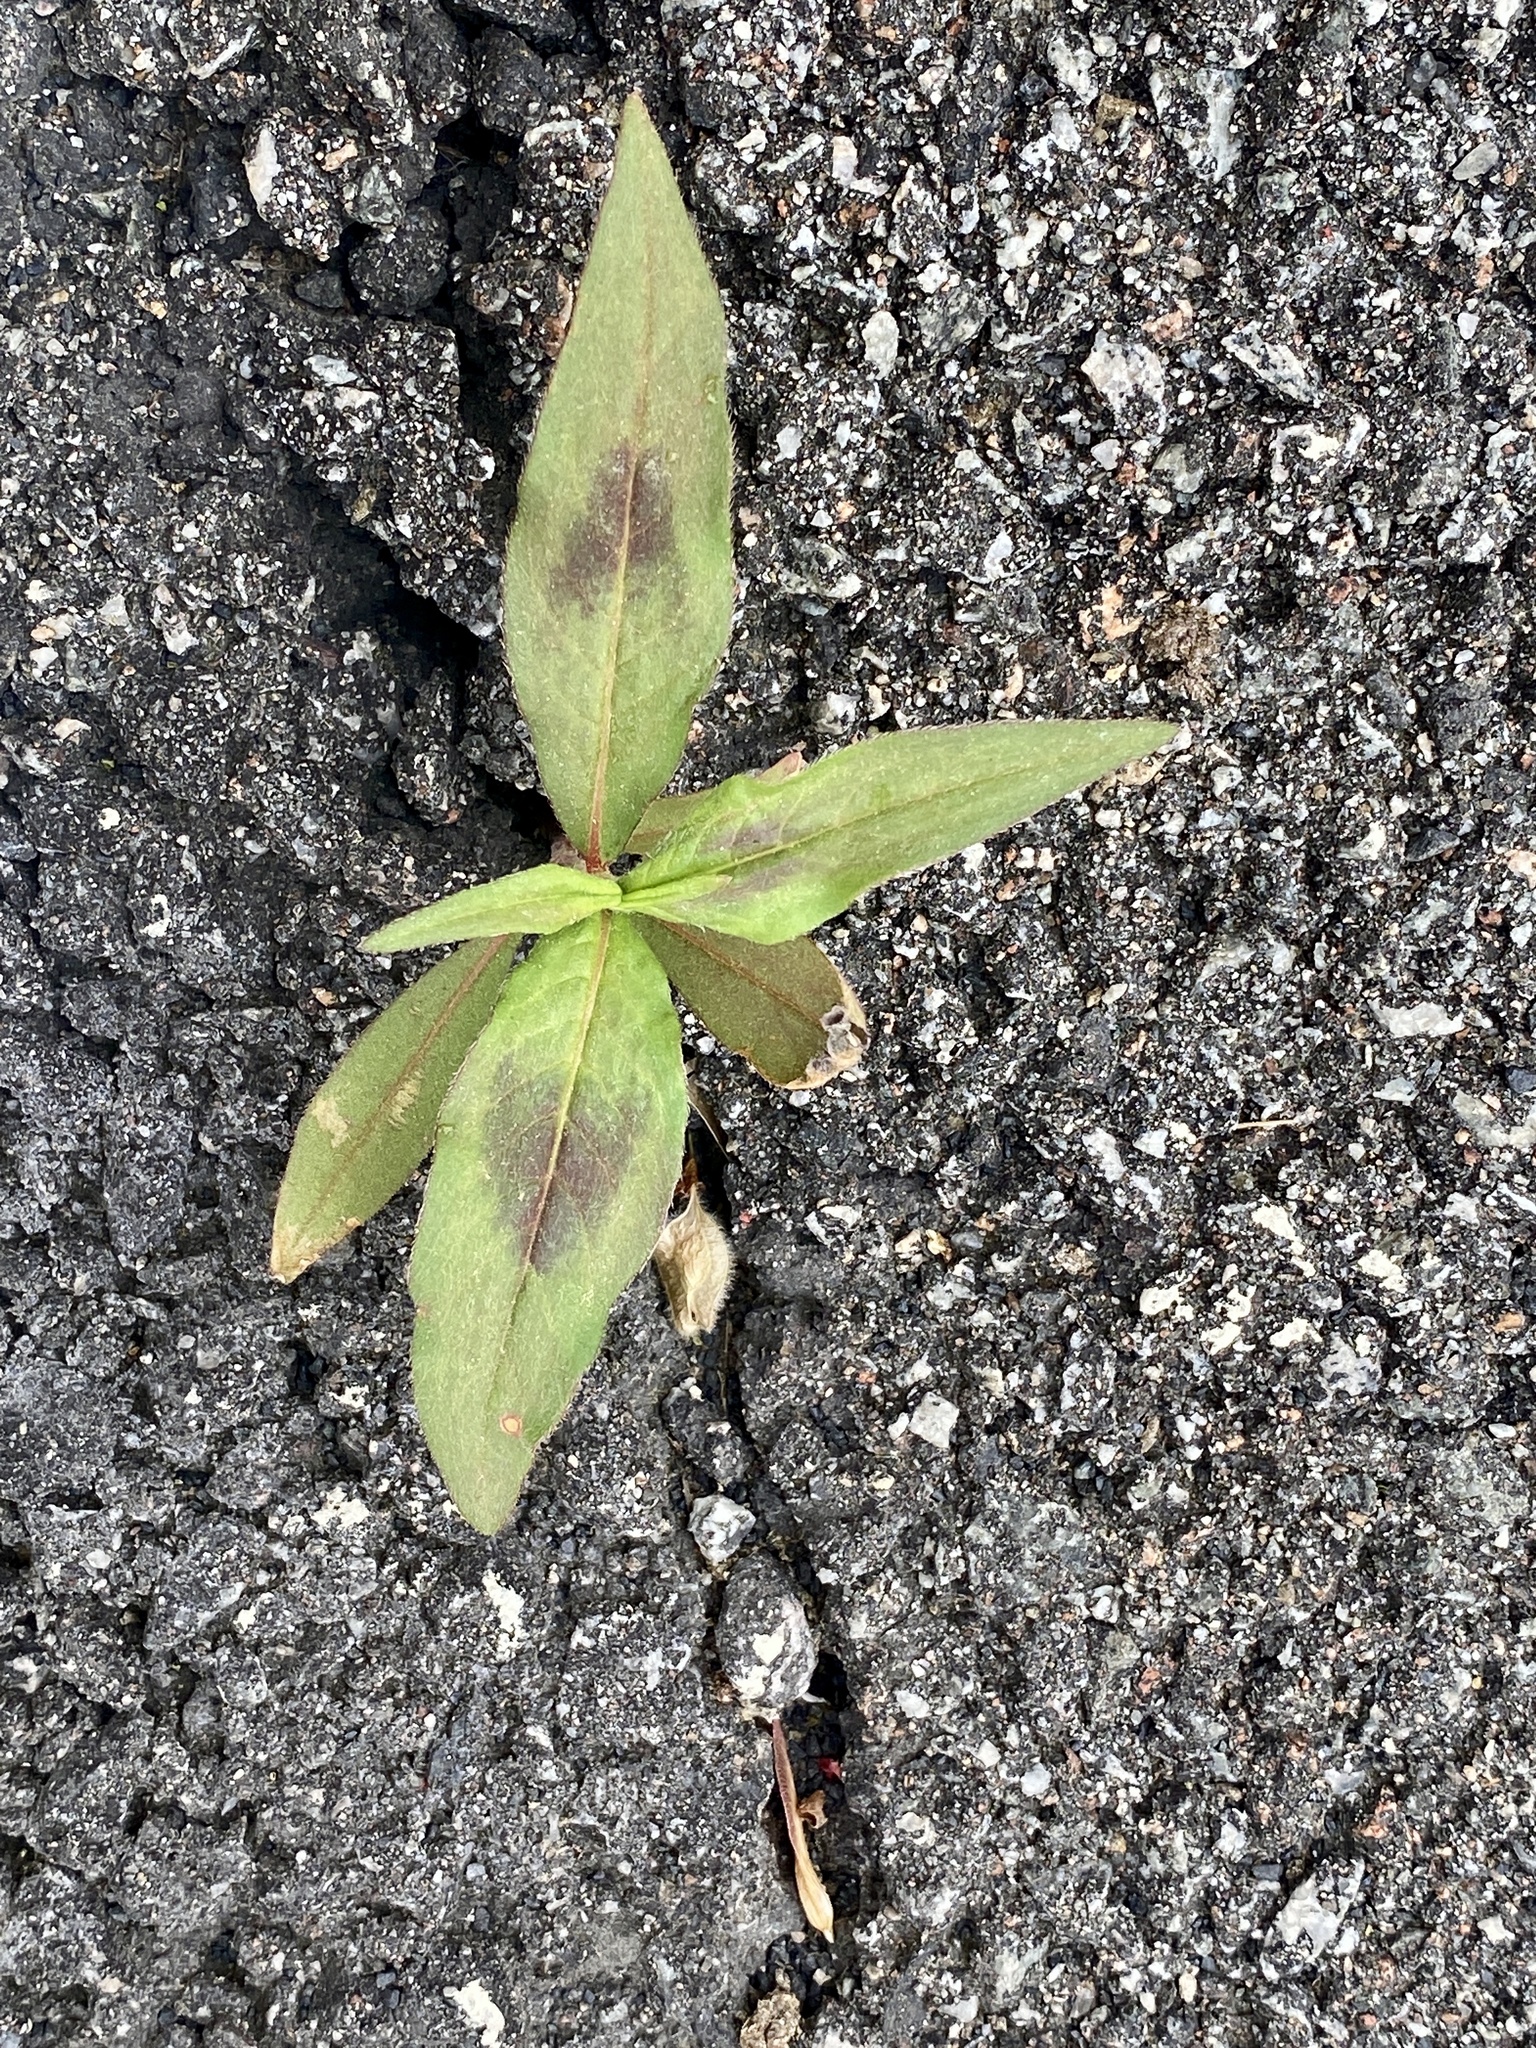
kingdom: Plantae
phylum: Tracheophyta
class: Magnoliopsida
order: Caryophyllales
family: Polygonaceae
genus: Persicaria
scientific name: Persicaria maculosa
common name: Redshank
